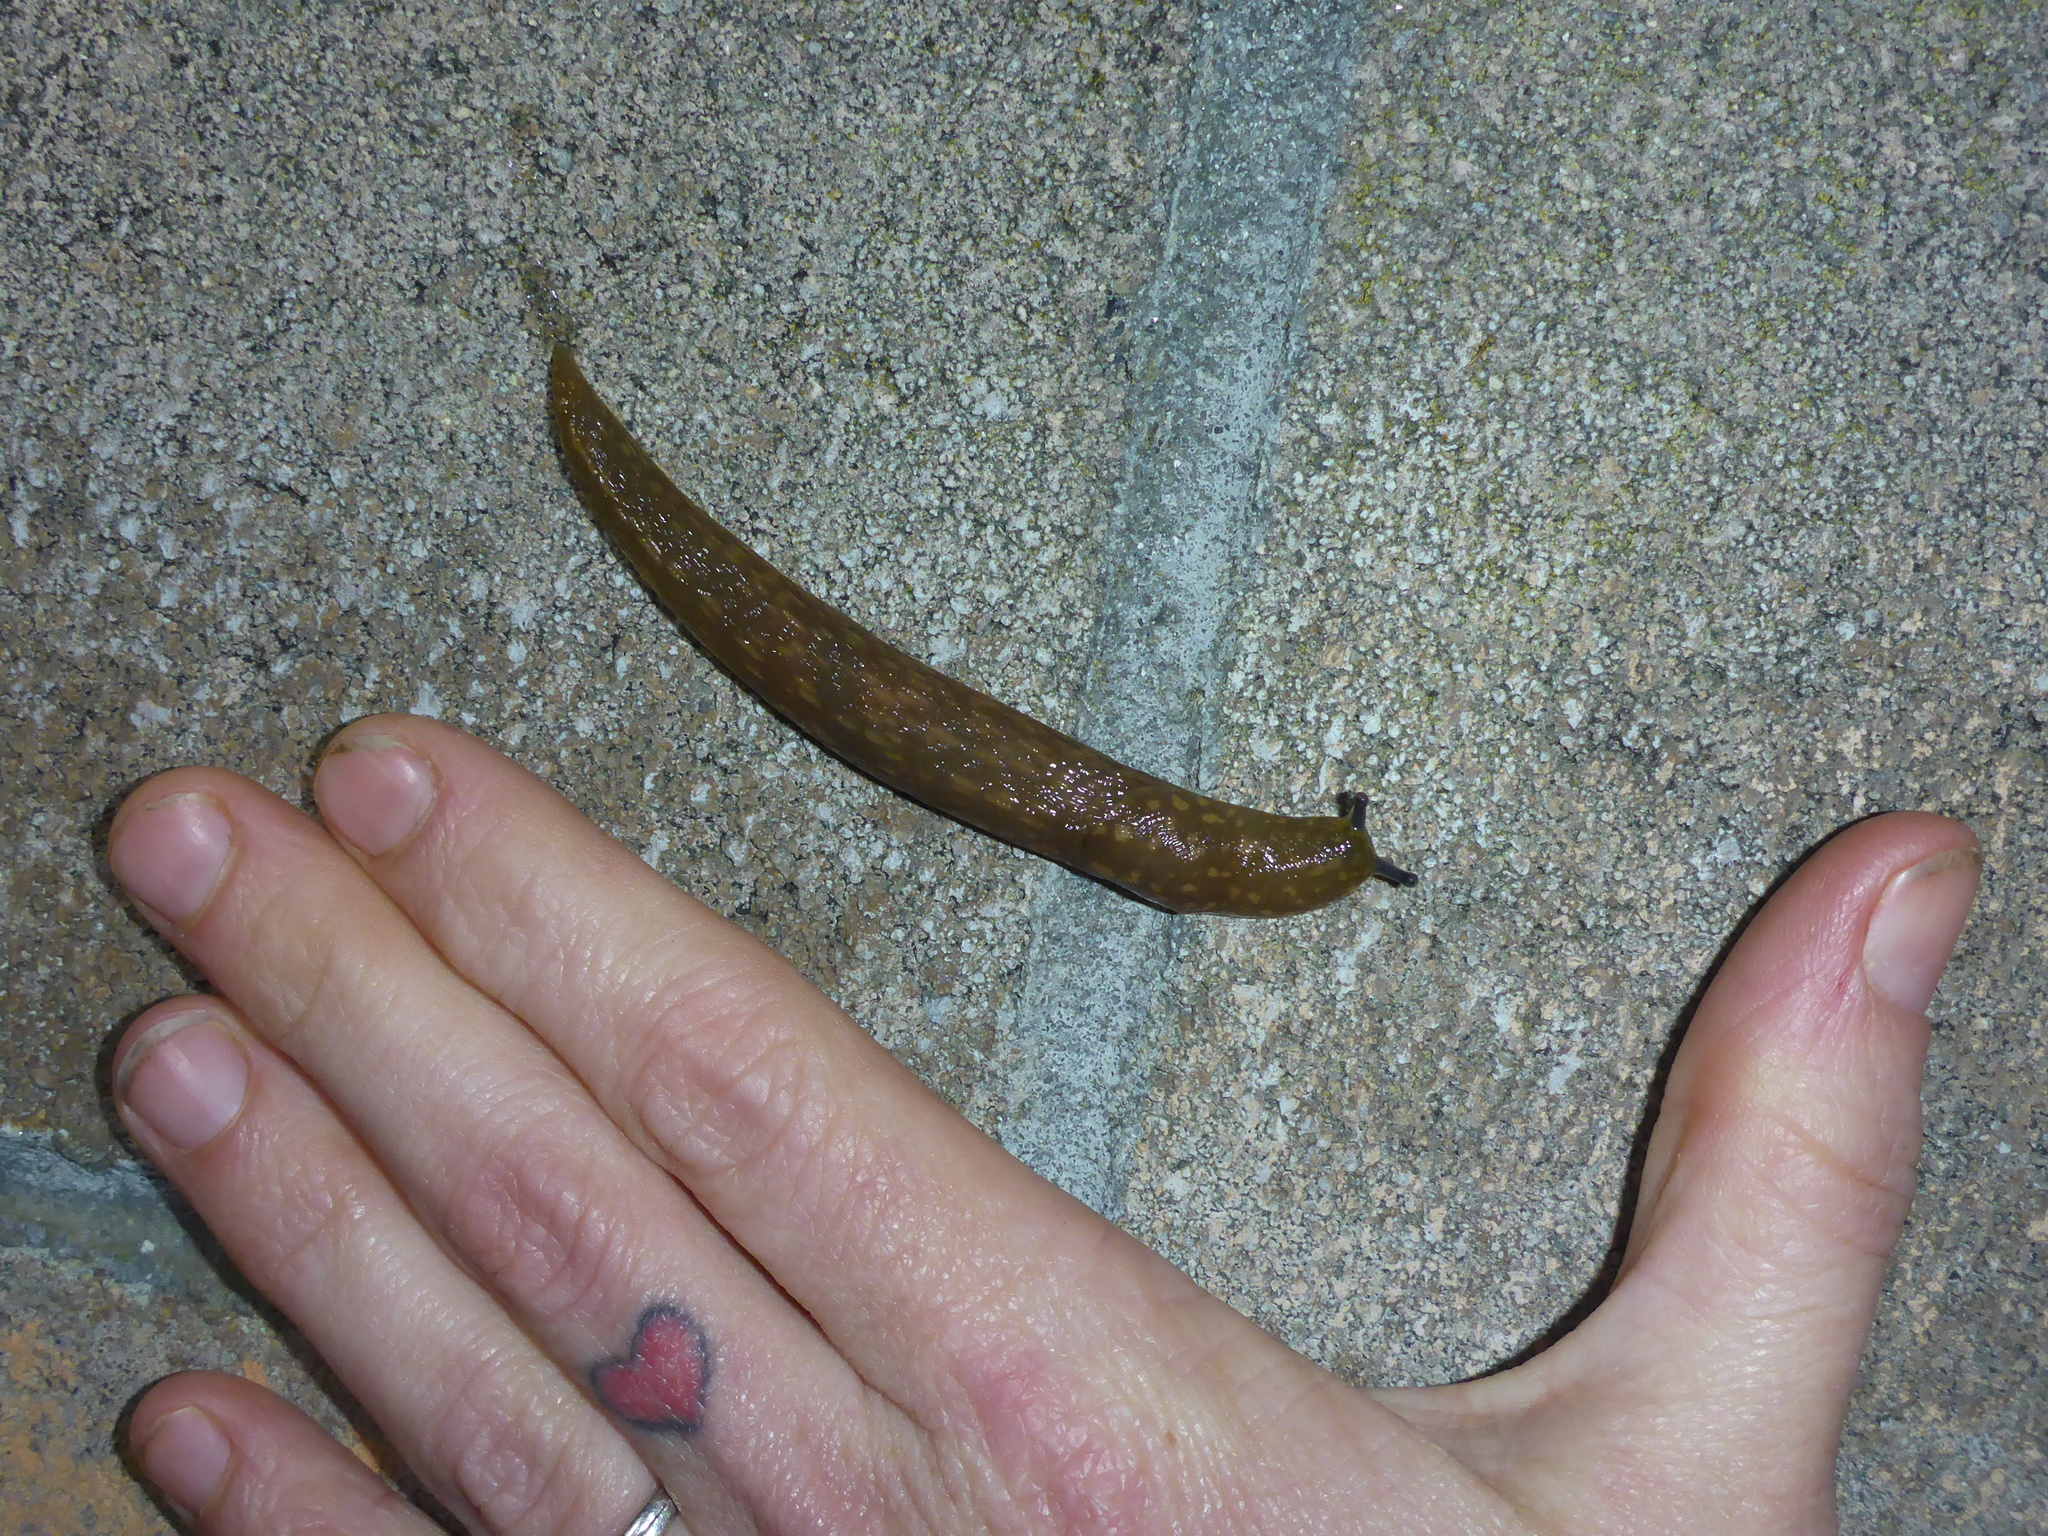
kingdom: Animalia
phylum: Mollusca
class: Gastropoda
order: Stylommatophora
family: Limacidae
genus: Limacus
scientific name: Limacus flavus
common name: Yellow gardenslug
